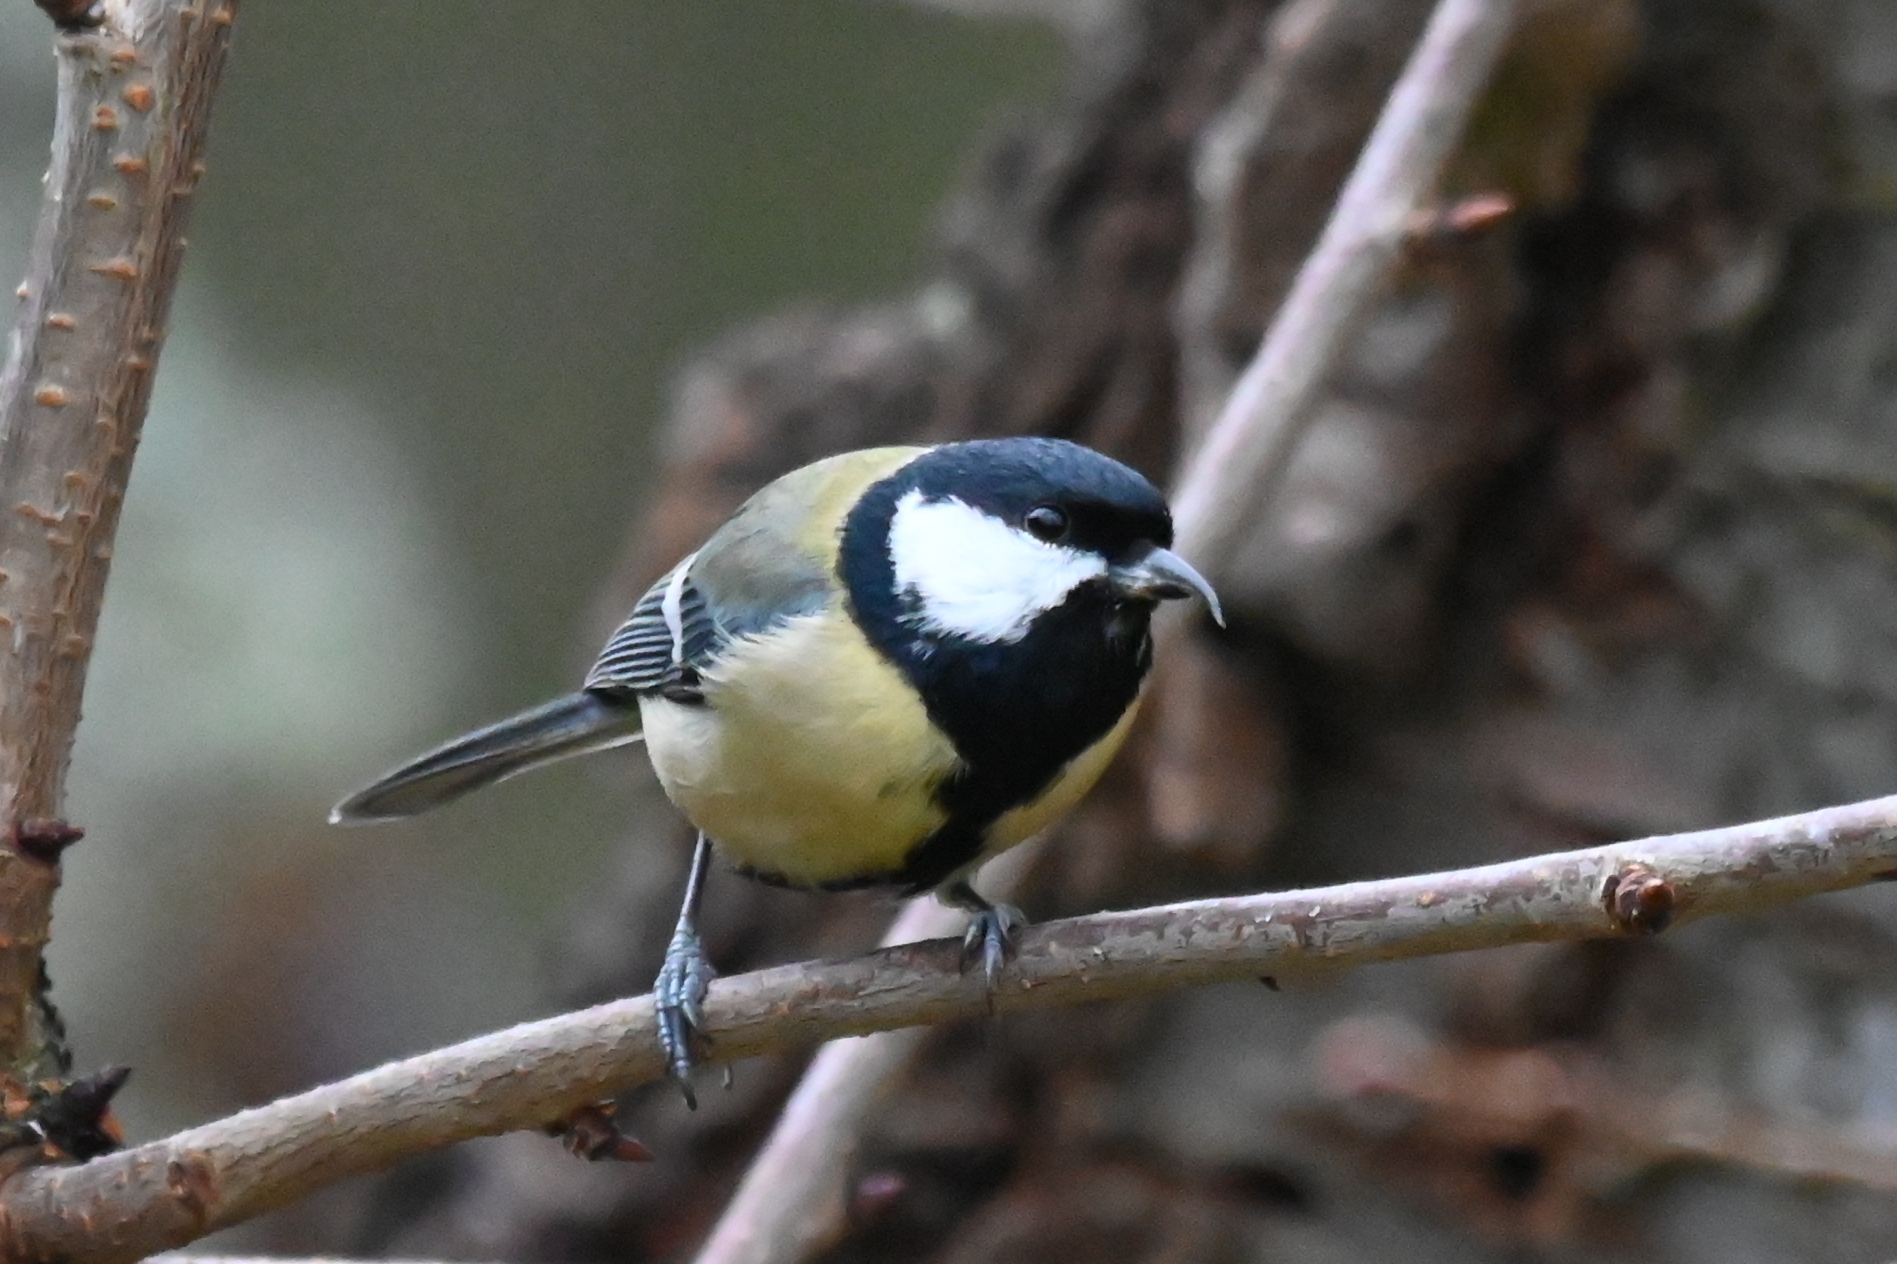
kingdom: Animalia
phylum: Chordata
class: Aves
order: Passeriformes
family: Paridae
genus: Parus
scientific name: Parus major
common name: Great tit
